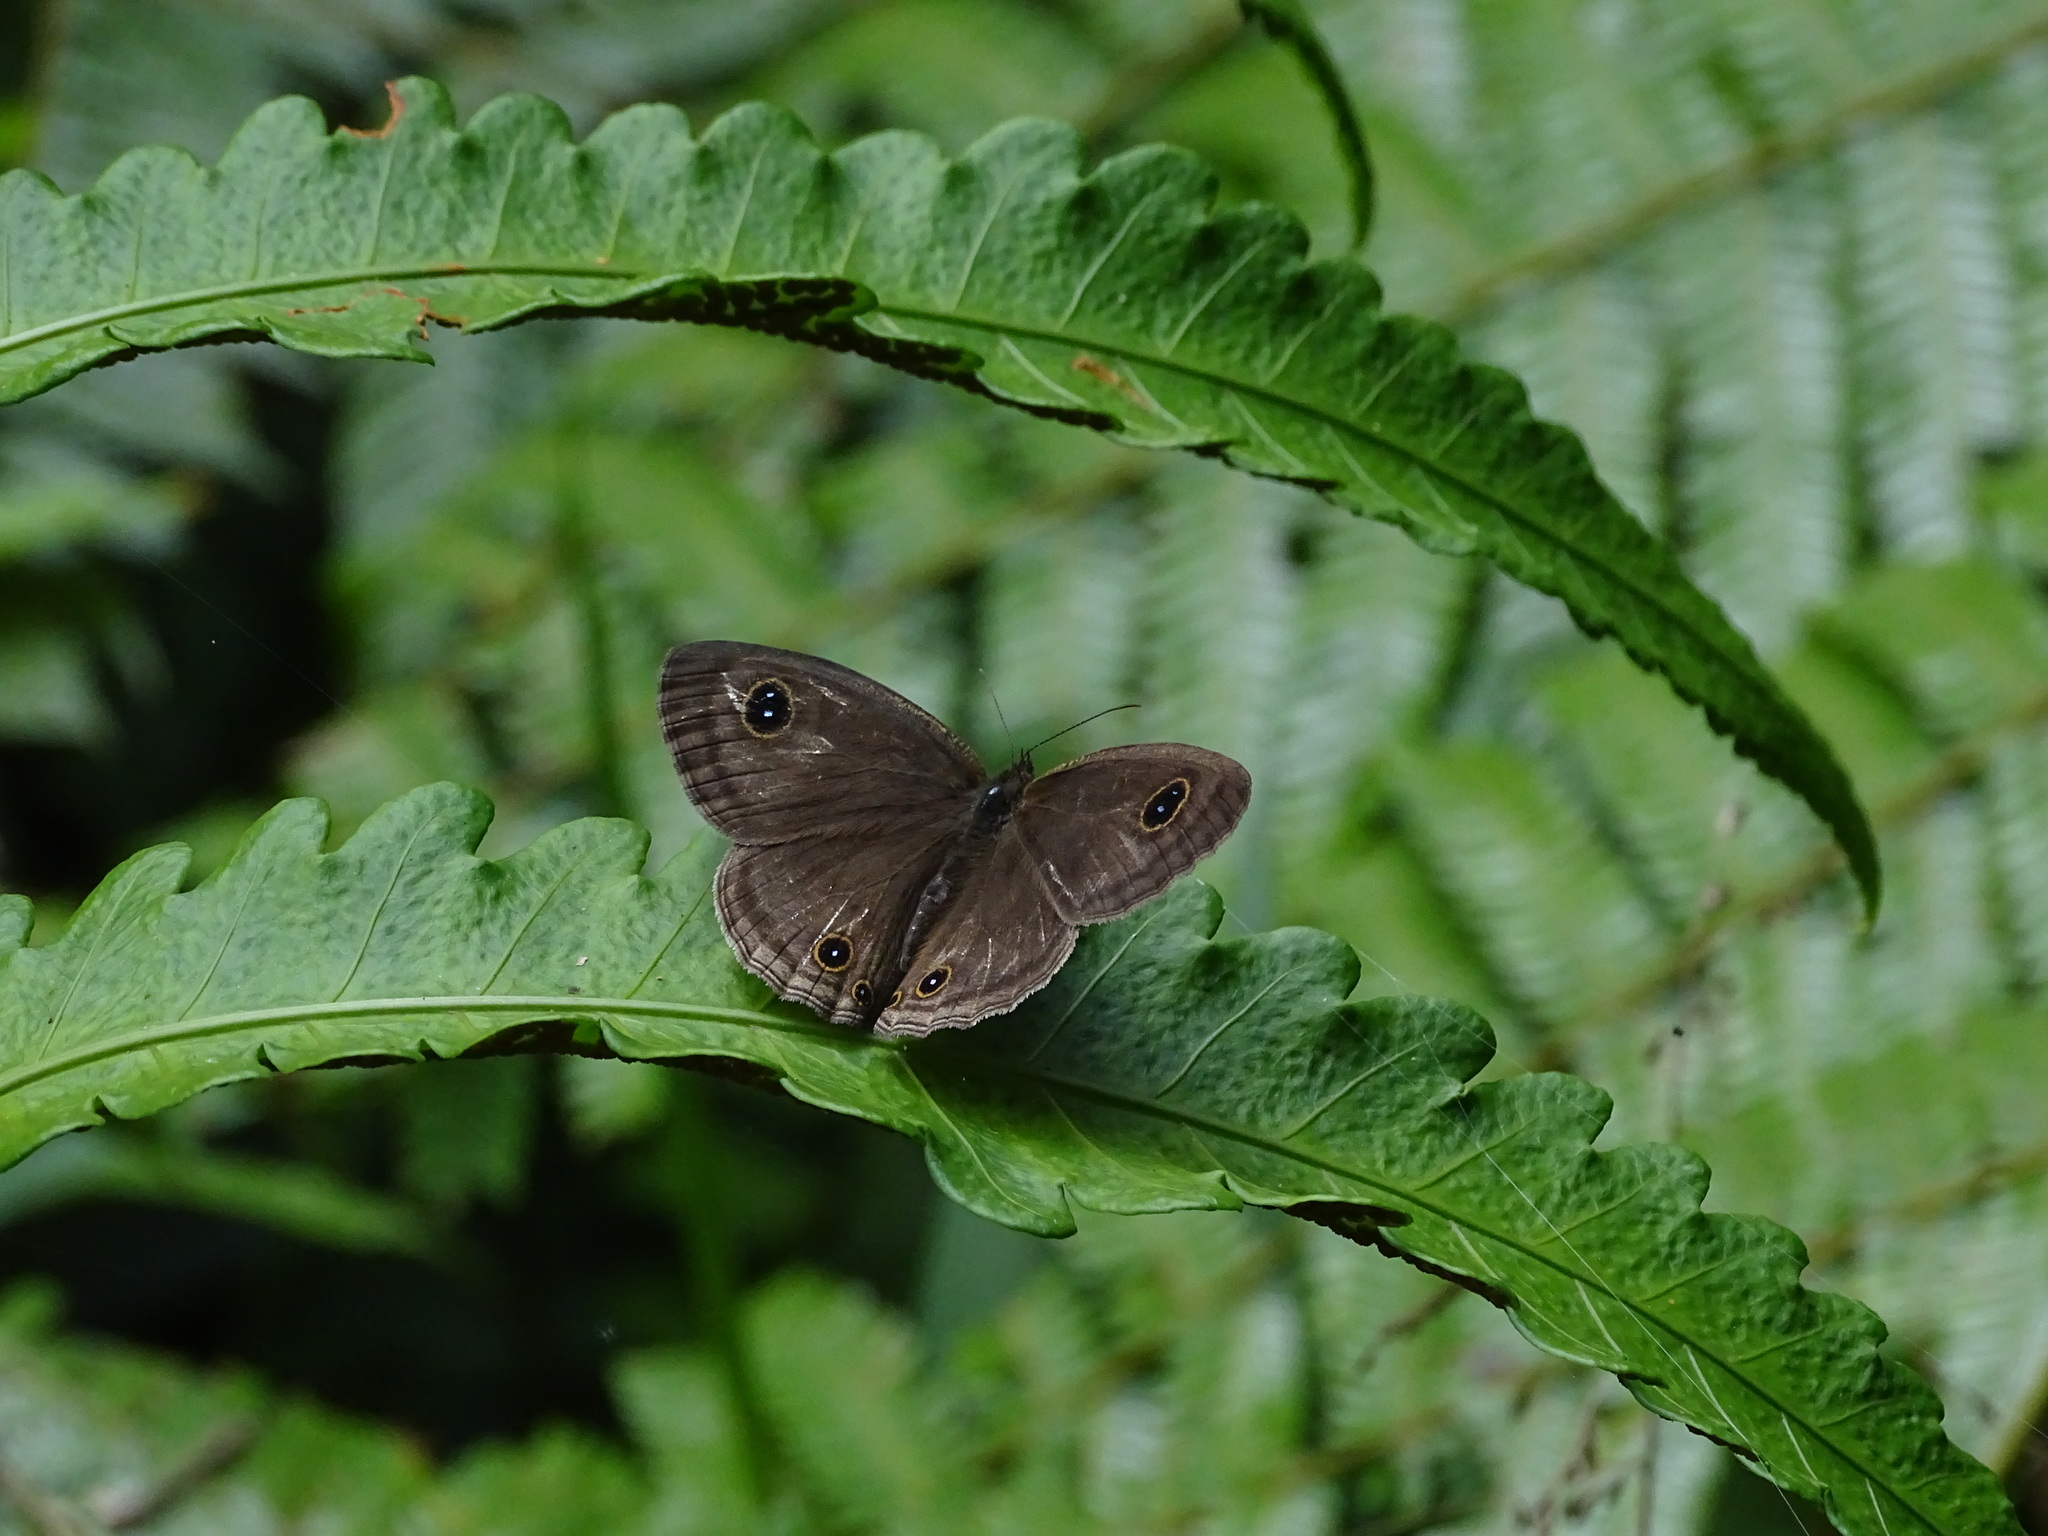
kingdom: Animalia
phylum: Arthropoda
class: Insecta
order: Lepidoptera
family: Nymphalidae
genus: Ypthima
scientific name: Ypthima pandocus
